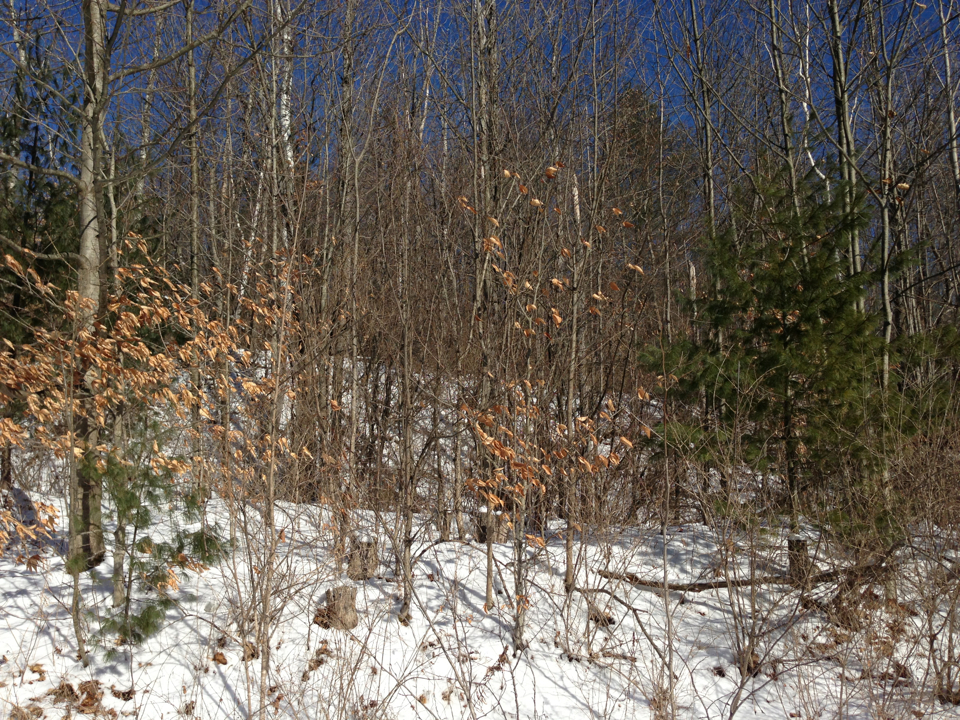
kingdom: Plantae
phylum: Tracheophyta
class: Magnoliopsida
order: Fagales
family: Fagaceae
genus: Fagus
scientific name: Fagus grandifolia
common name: American beech
